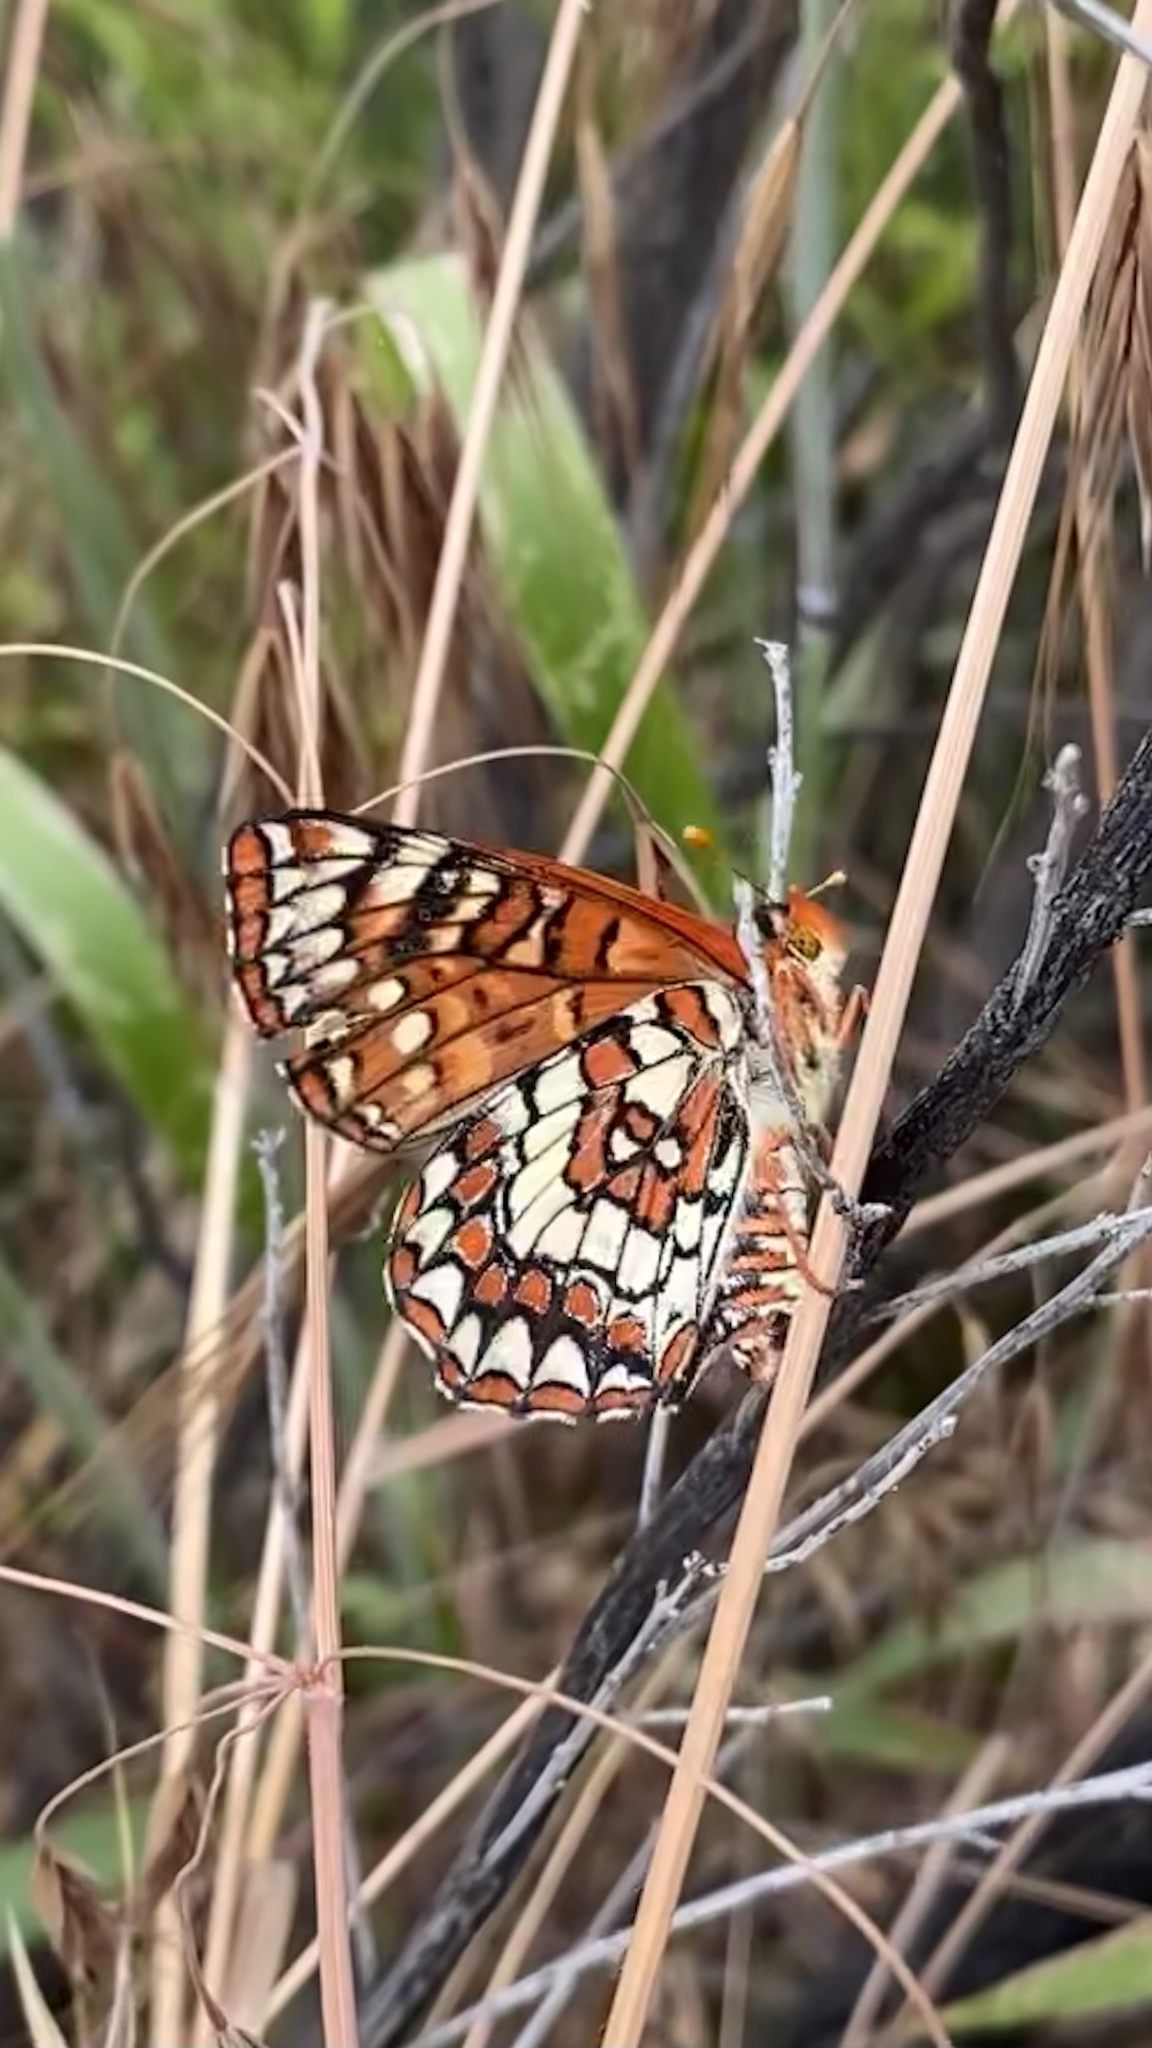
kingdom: Animalia
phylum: Arthropoda
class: Insecta
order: Lepidoptera
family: Nymphalidae
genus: Occidryas
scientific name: Occidryas chalcedona
